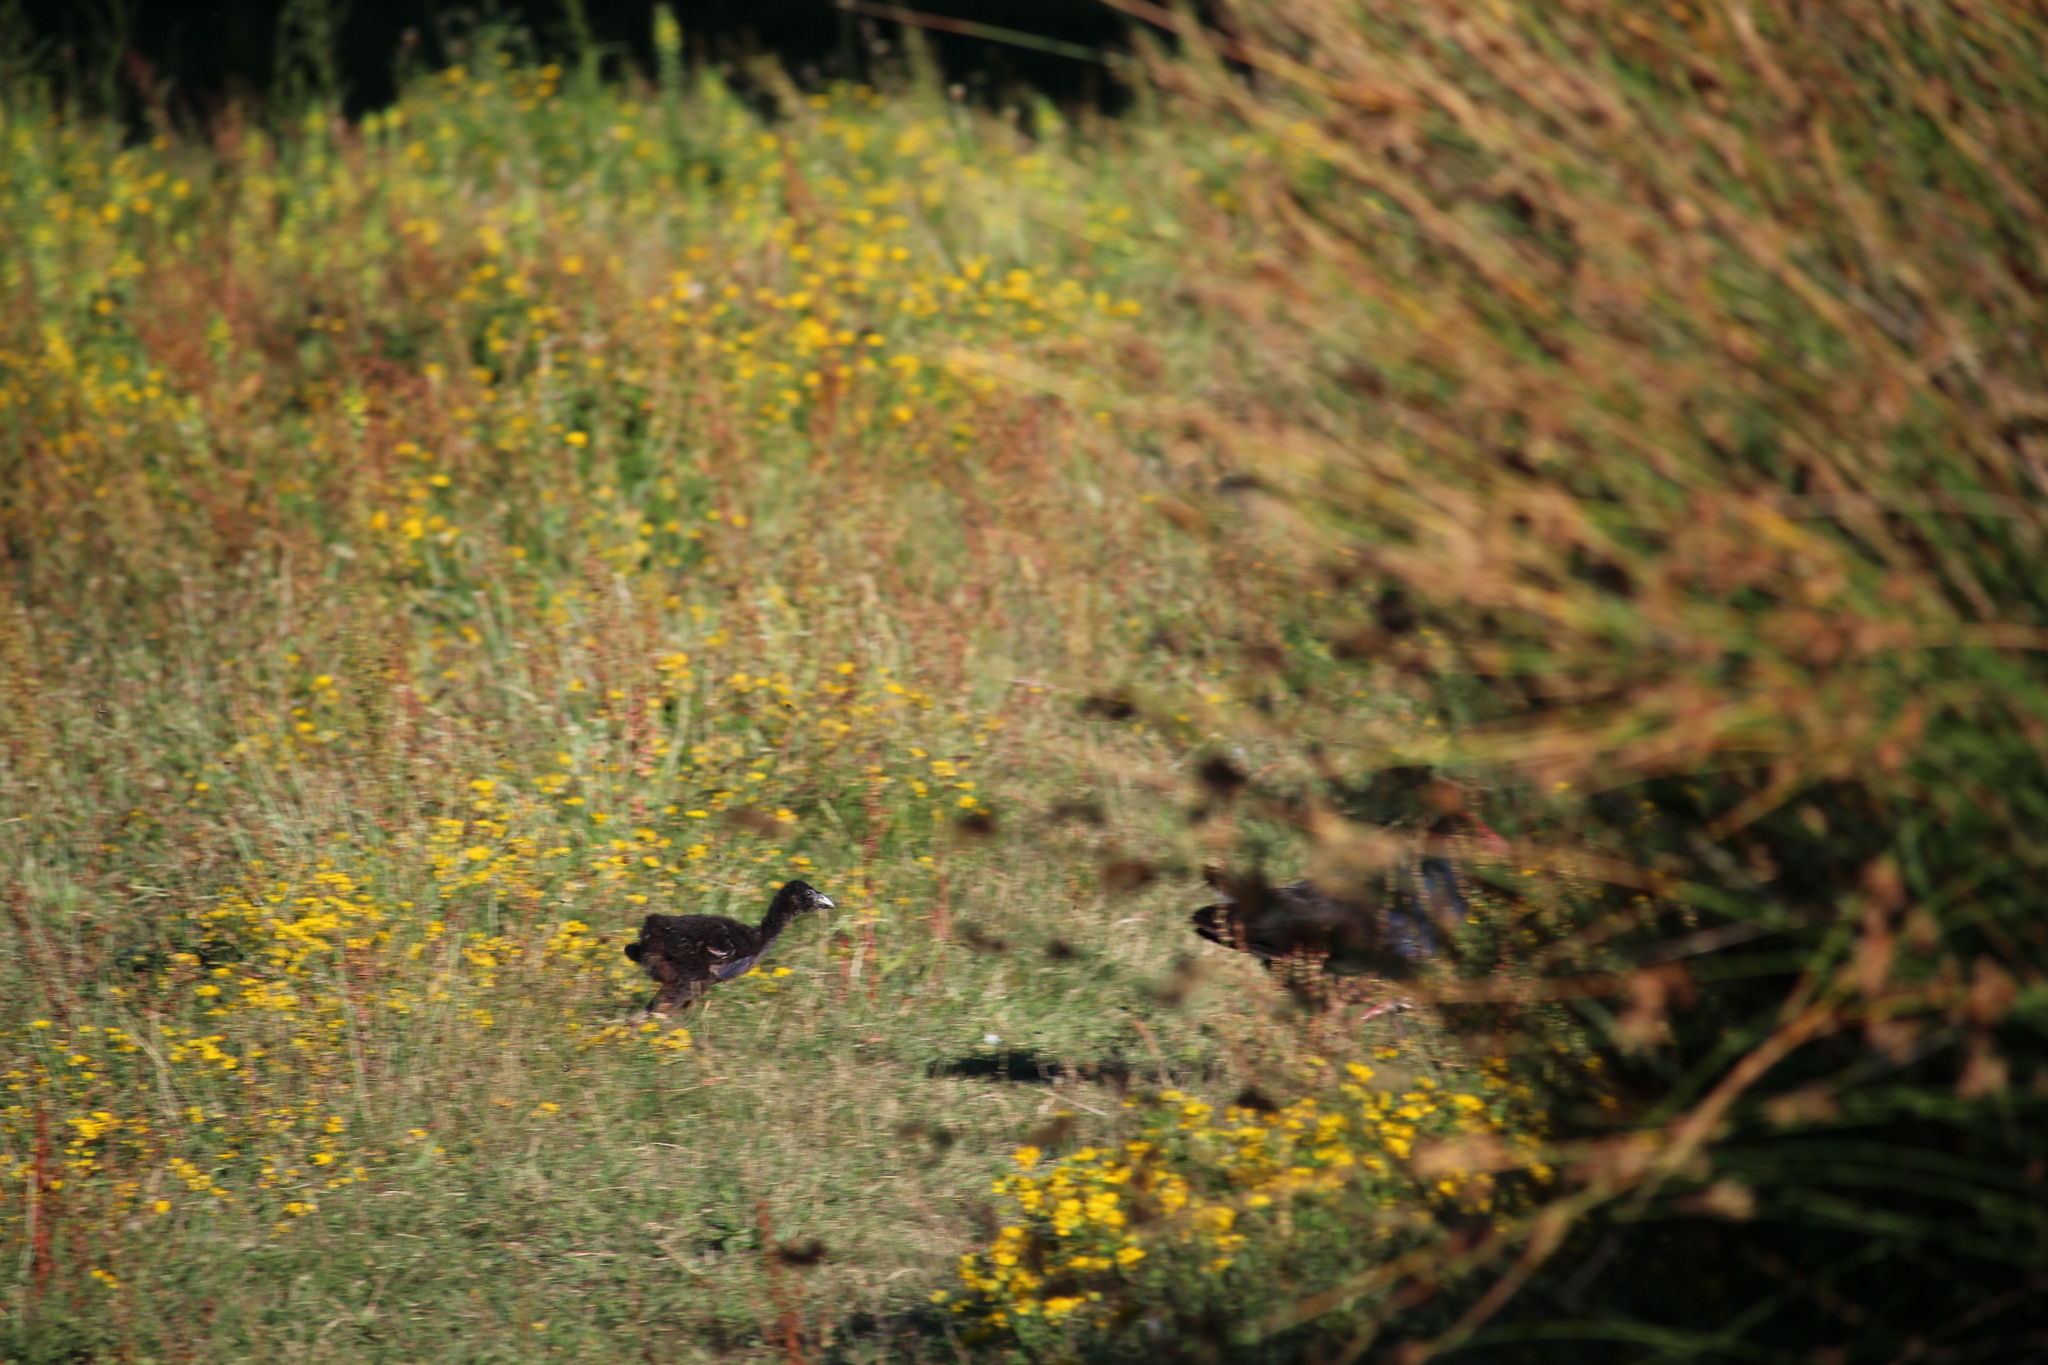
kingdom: Animalia
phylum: Chordata
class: Aves
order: Gruiformes
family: Rallidae
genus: Porphyrio
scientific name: Porphyrio melanotus
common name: Australasian swamphen
